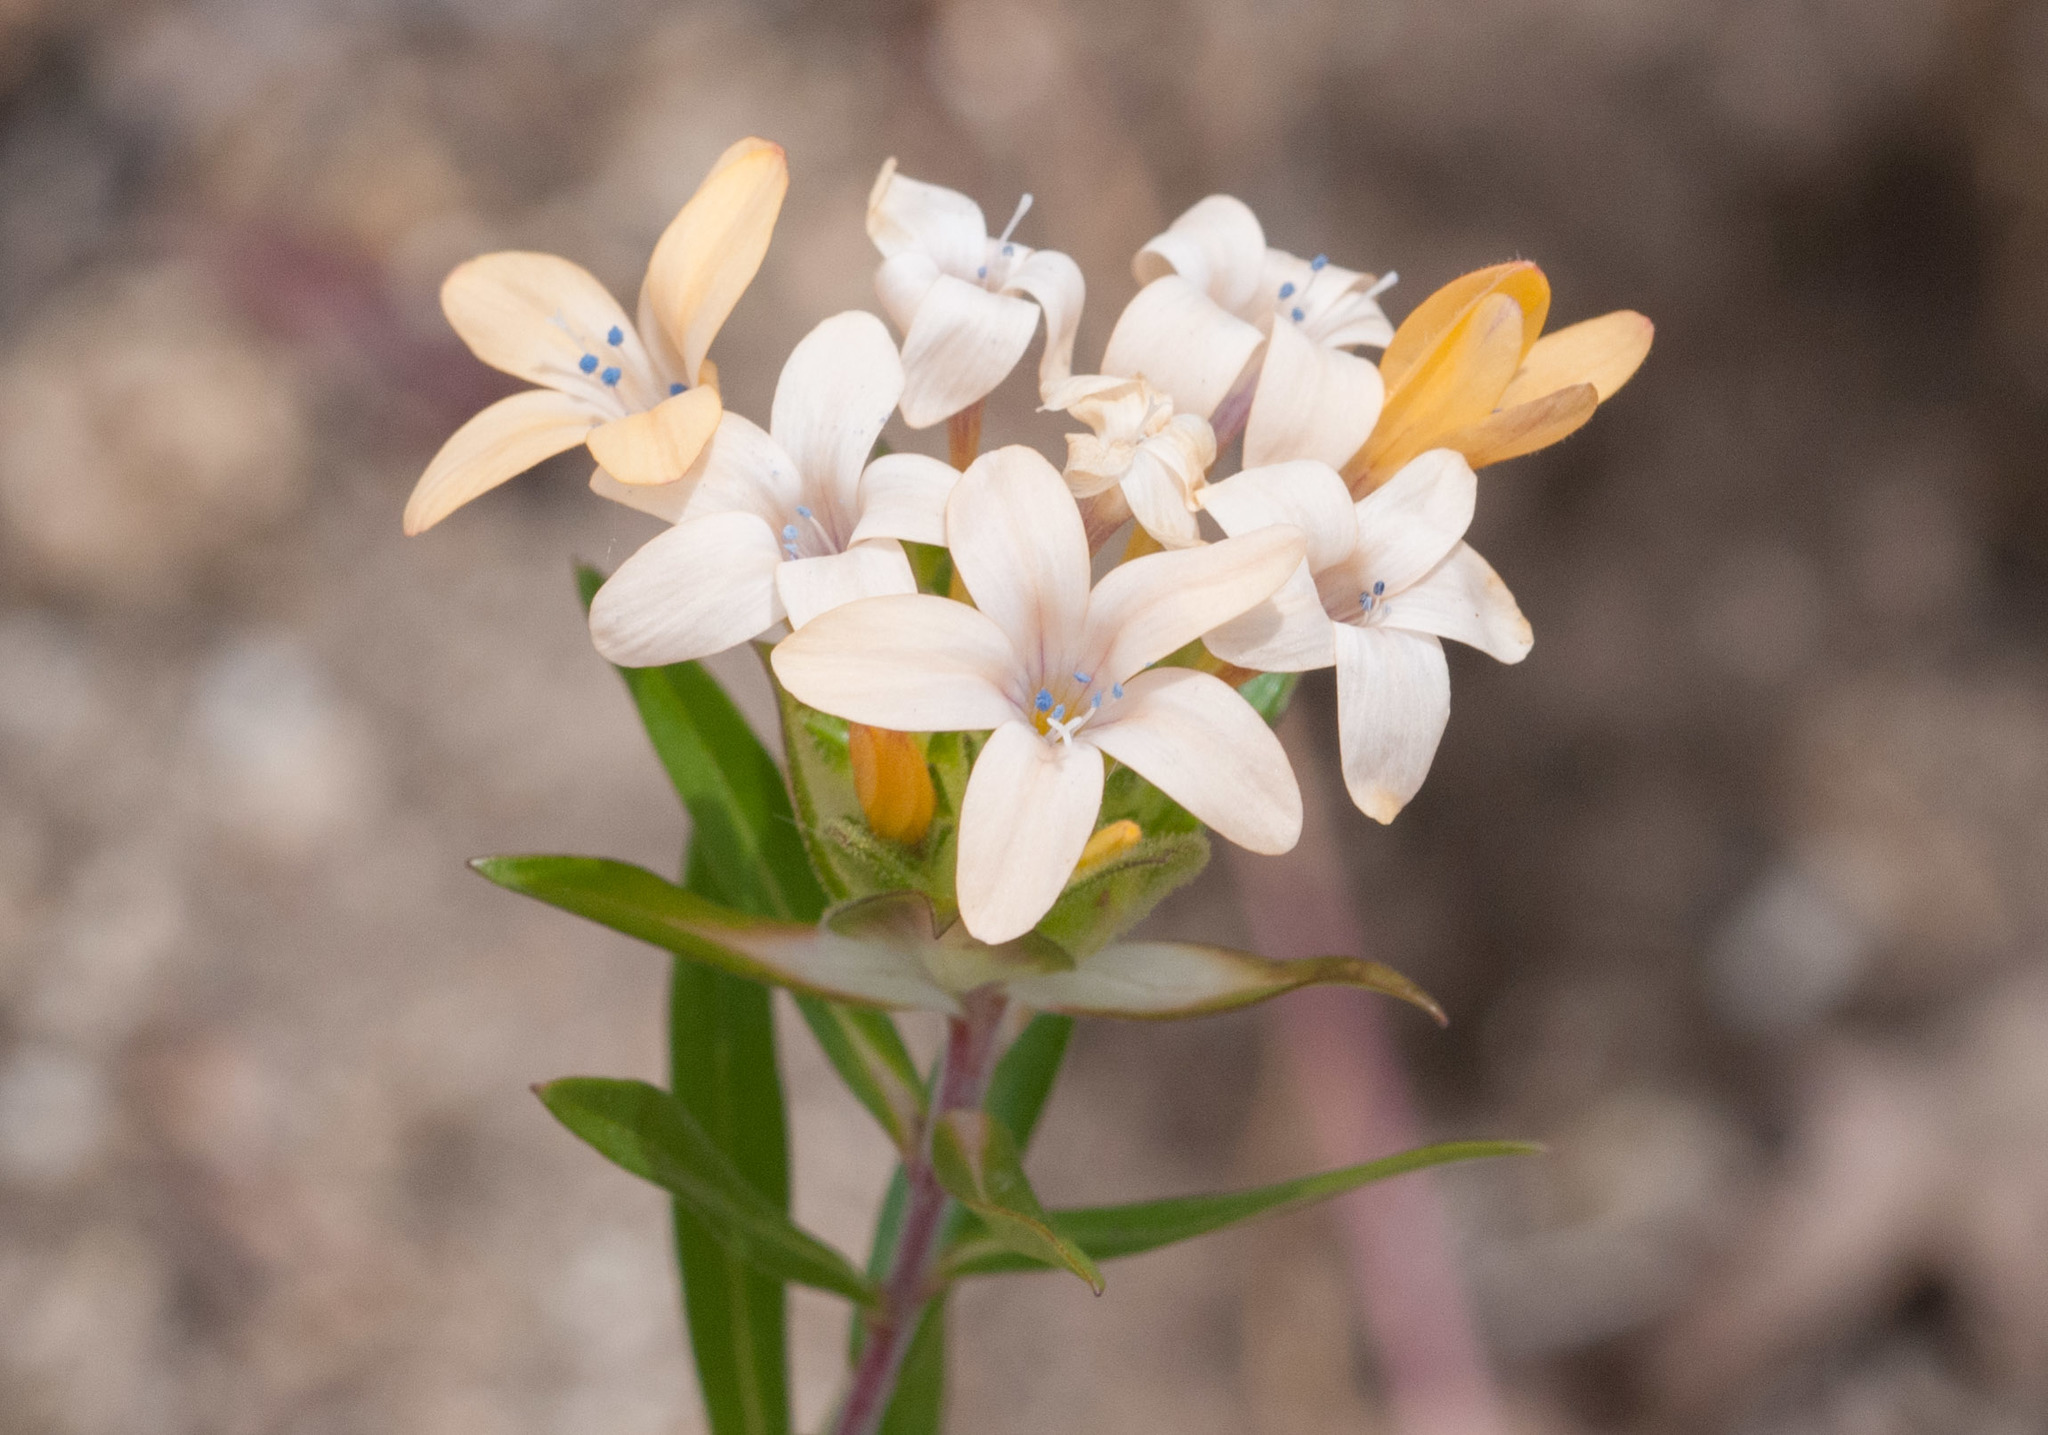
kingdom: Plantae
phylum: Tracheophyta
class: Magnoliopsida
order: Ericales
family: Polemoniaceae
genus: Collomia
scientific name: Collomia grandiflora
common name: California strawflower
